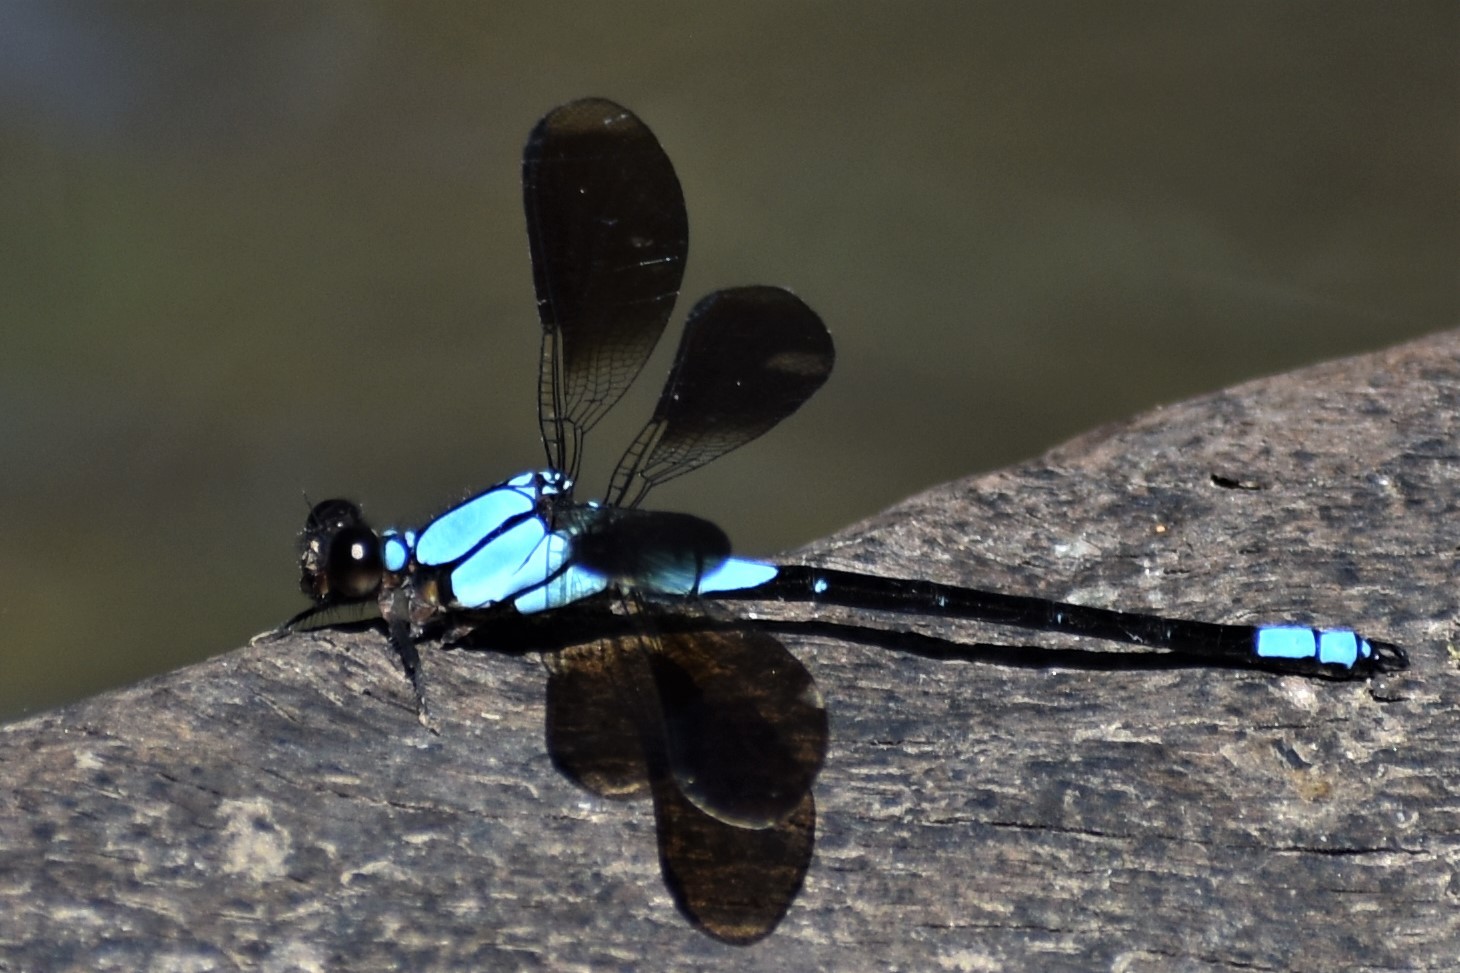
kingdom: Animalia
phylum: Arthropoda
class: Insecta
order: Odonata
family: Lestoideidae
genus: Diphlebia
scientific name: Diphlebia euphoeoides
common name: Tropical rockmaster
